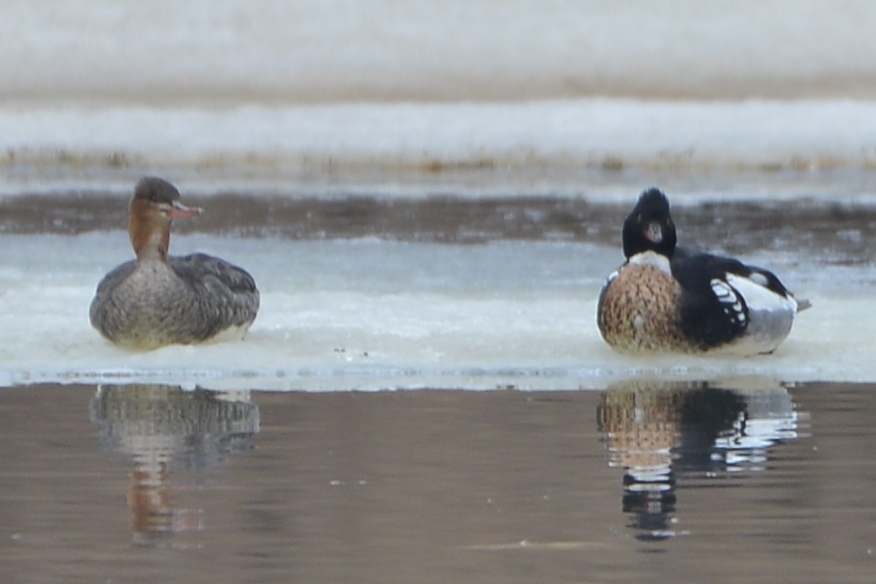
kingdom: Animalia
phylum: Chordata
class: Aves
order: Anseriformes
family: Anatidae
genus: Mergus
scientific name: Mergus serrator
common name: Red-breasted merganser
